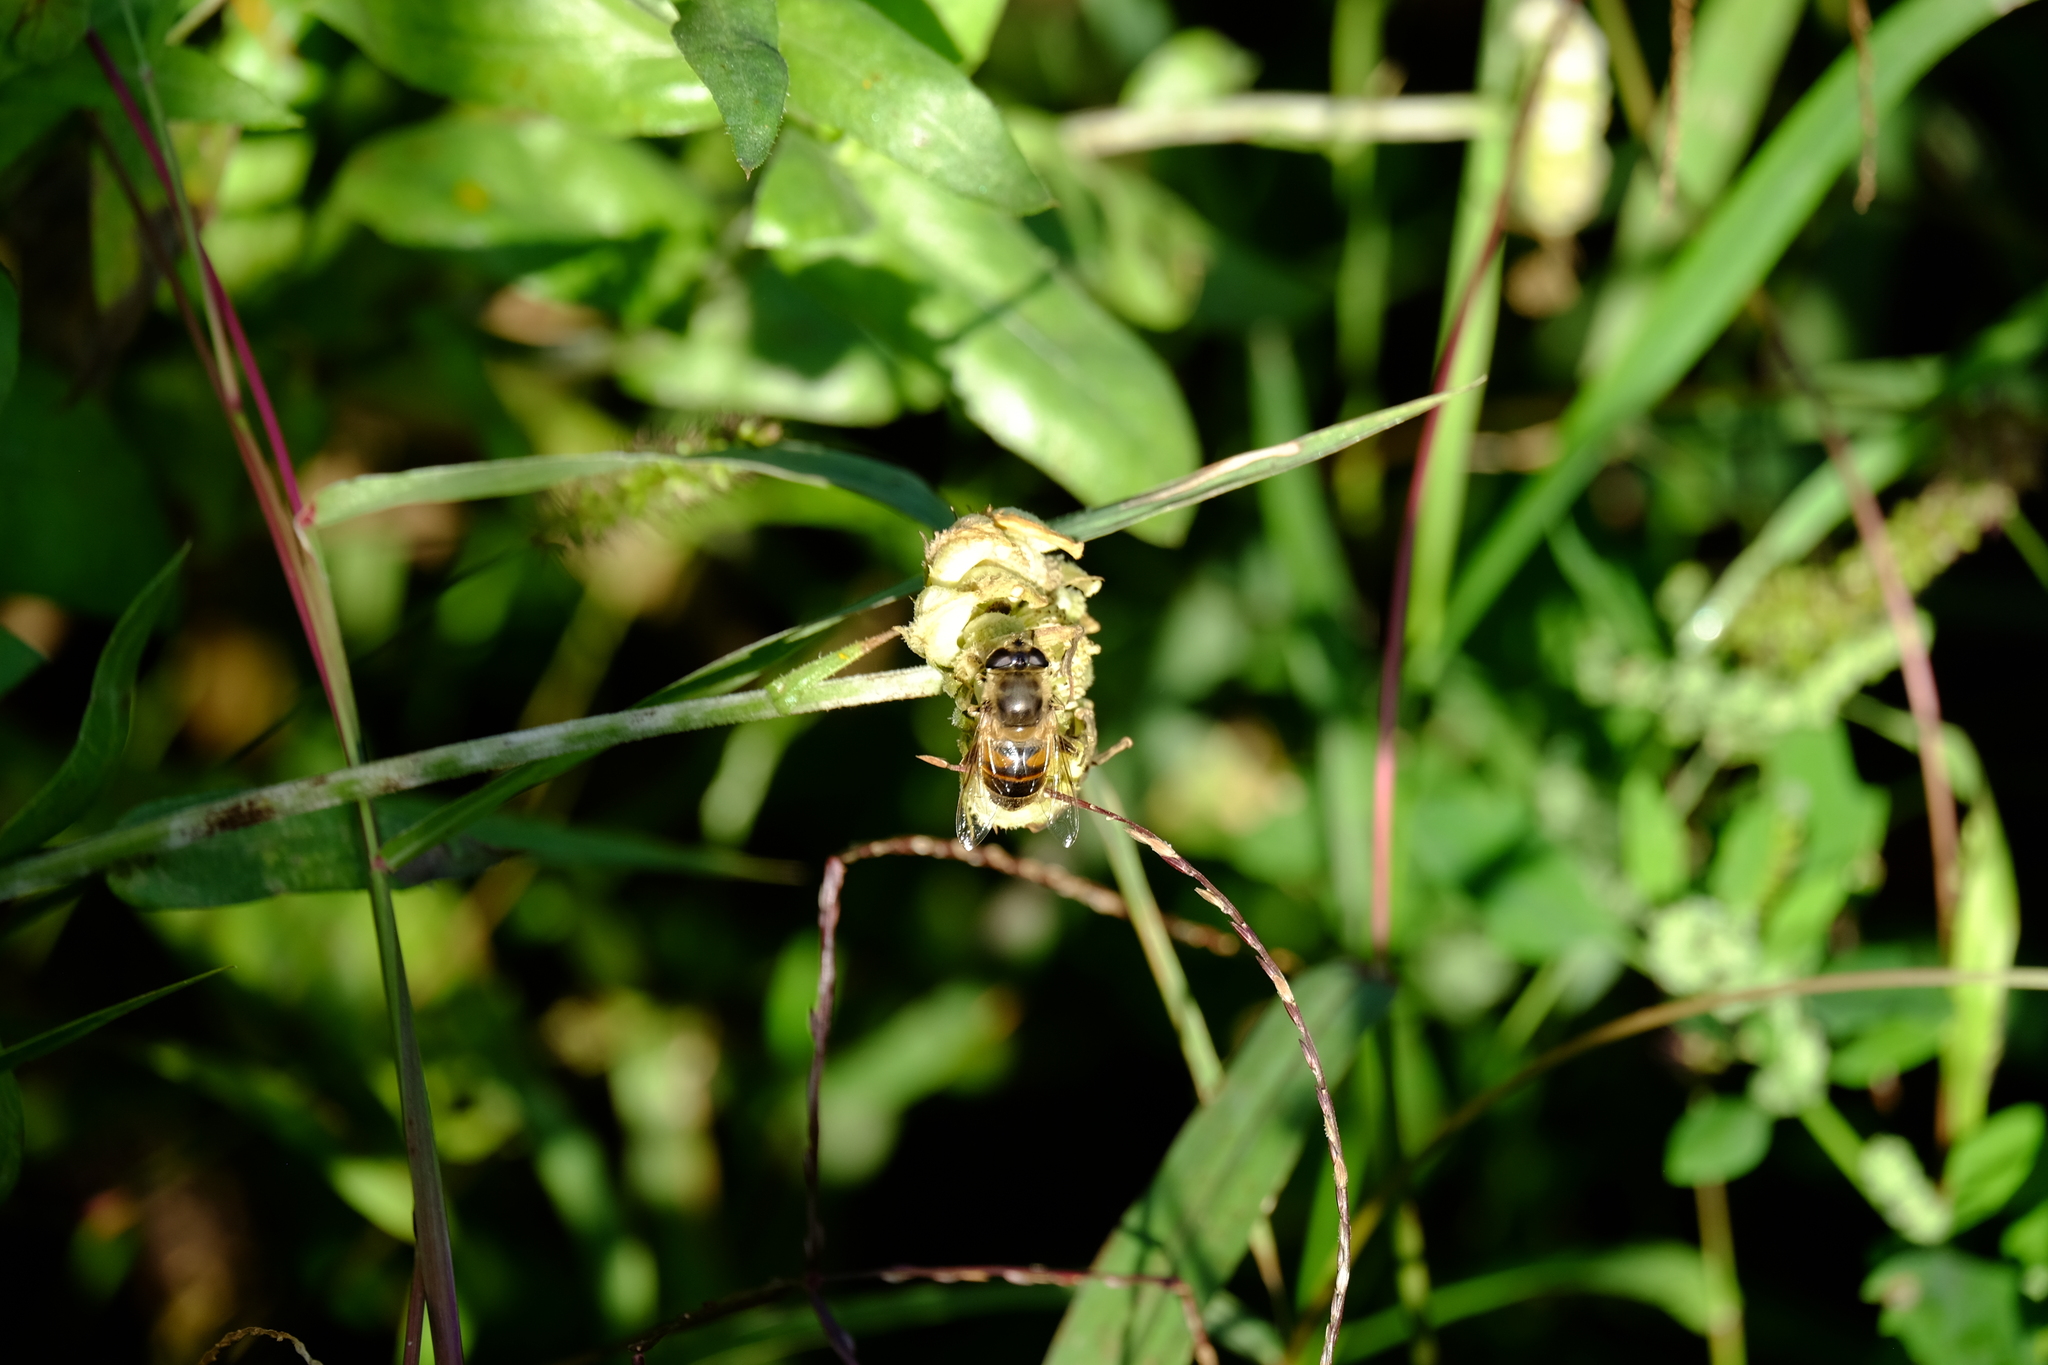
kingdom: Animalia
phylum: Arthropoda
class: Insecta
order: Diptera
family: Syrphidae
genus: Eristalis
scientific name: Eristalis tenax
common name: Drone fly
